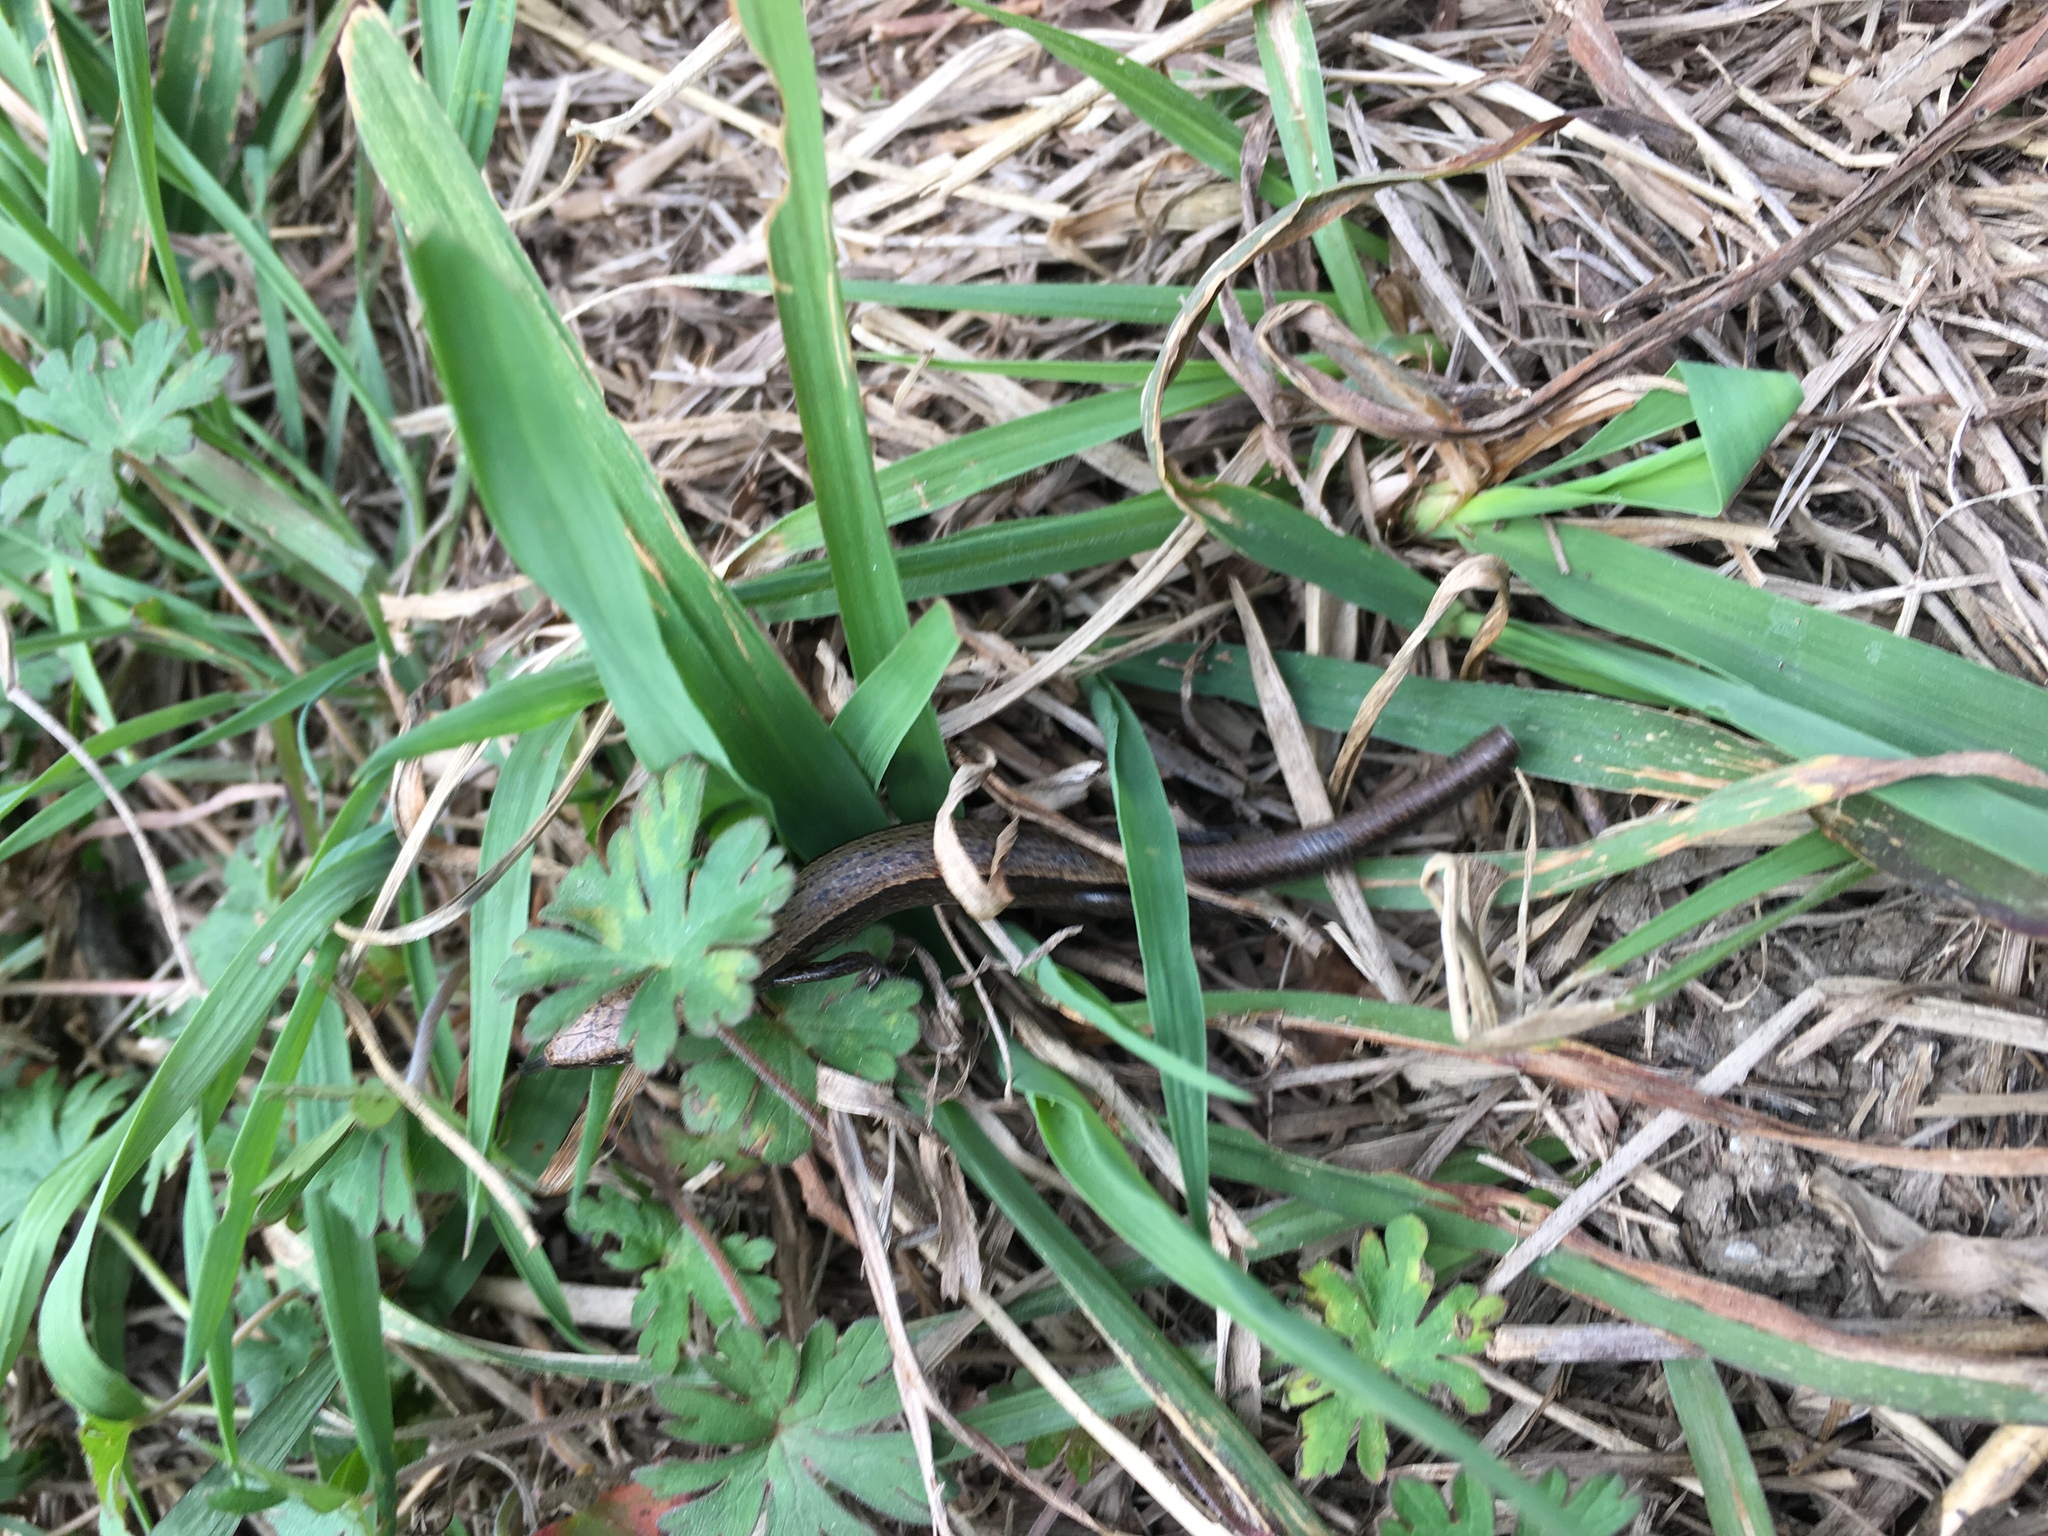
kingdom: Animalia
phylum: Chordata
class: Squamata
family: Scincidae
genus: Scincella
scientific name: Scincella lateralis
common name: Ground skink
